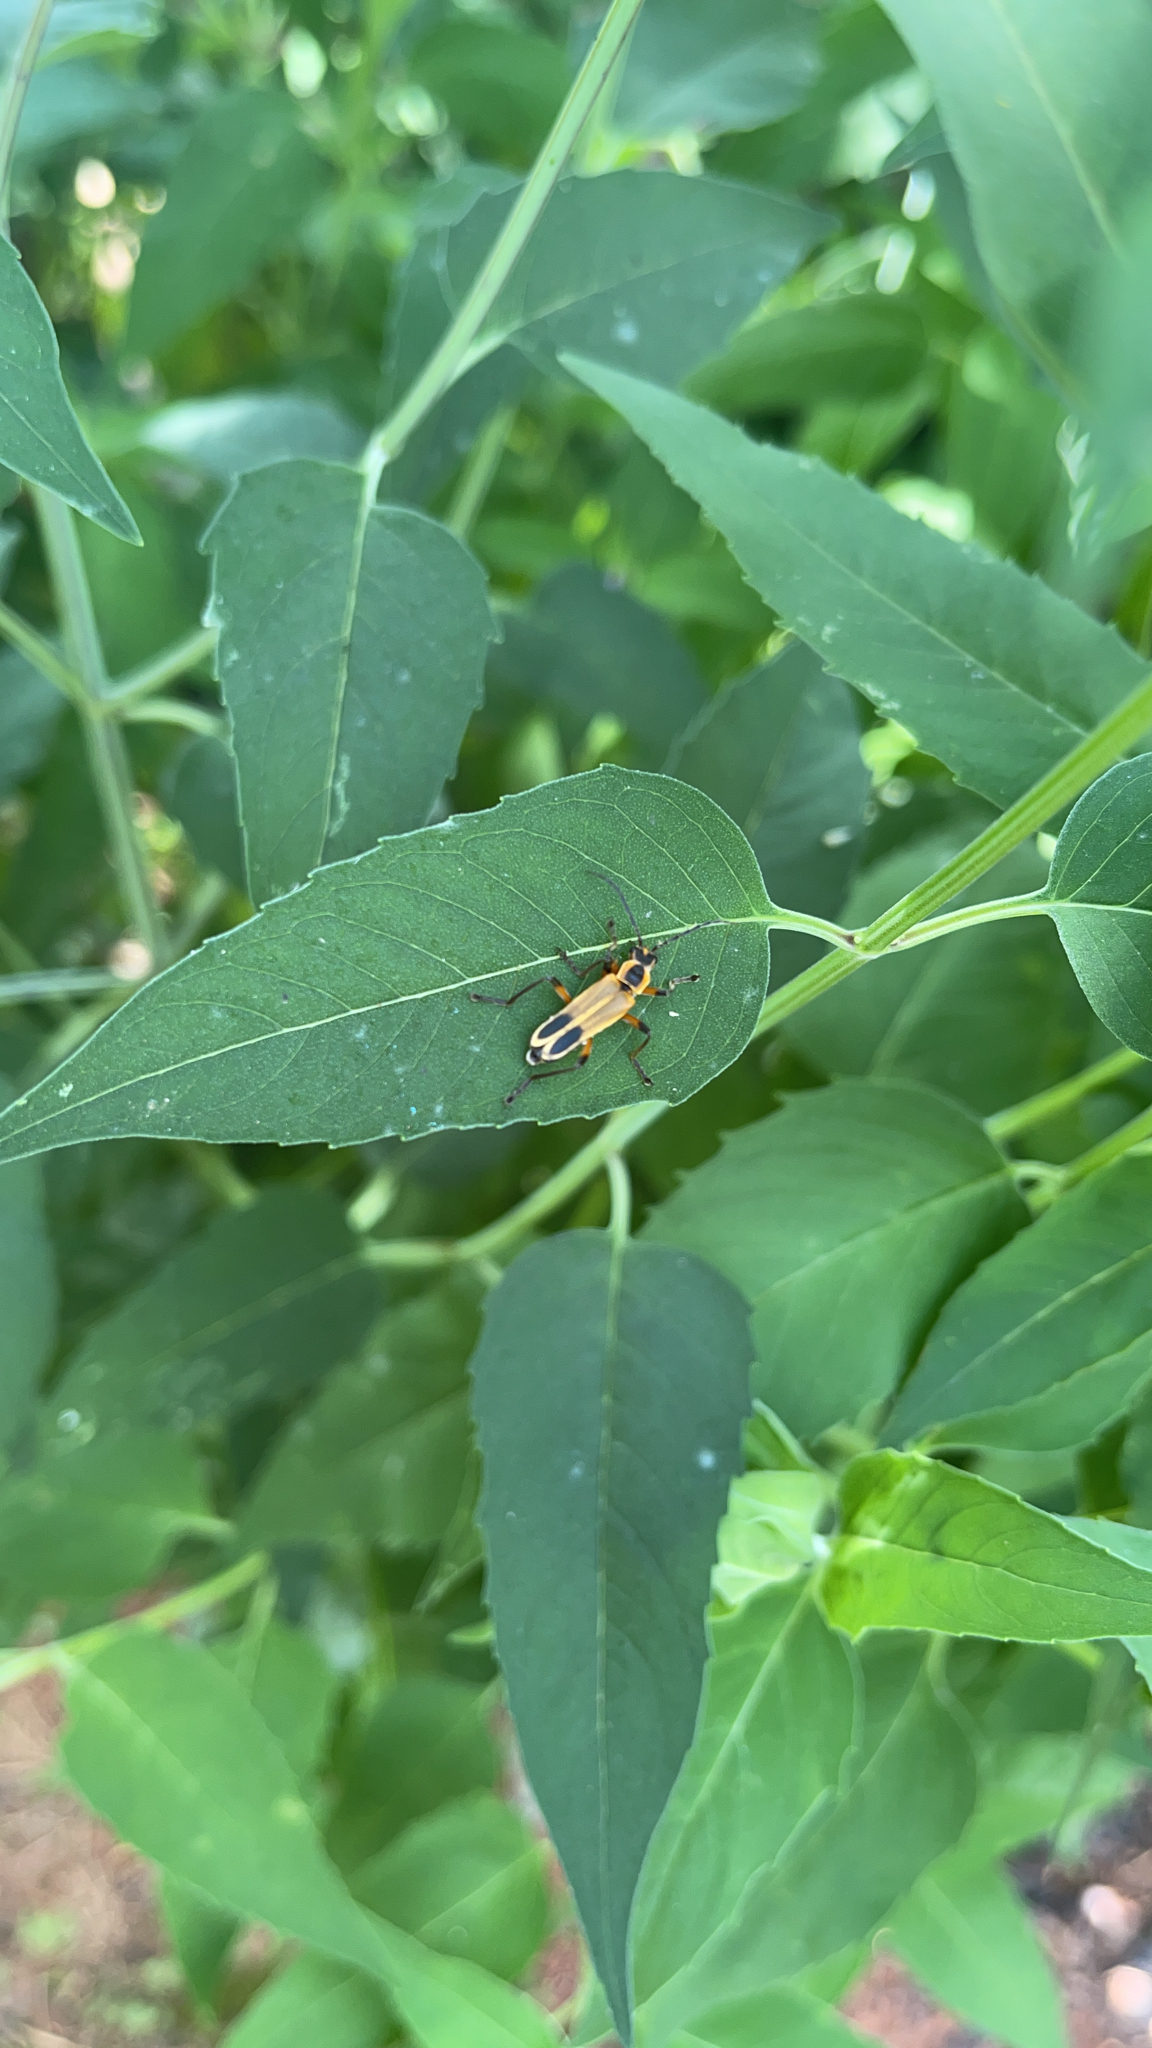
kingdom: Animalia
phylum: Arthropoda
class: Insecta
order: Coleoptera
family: Cantharidae
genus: Chauliognathus
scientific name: Chauliognathus marginatus
